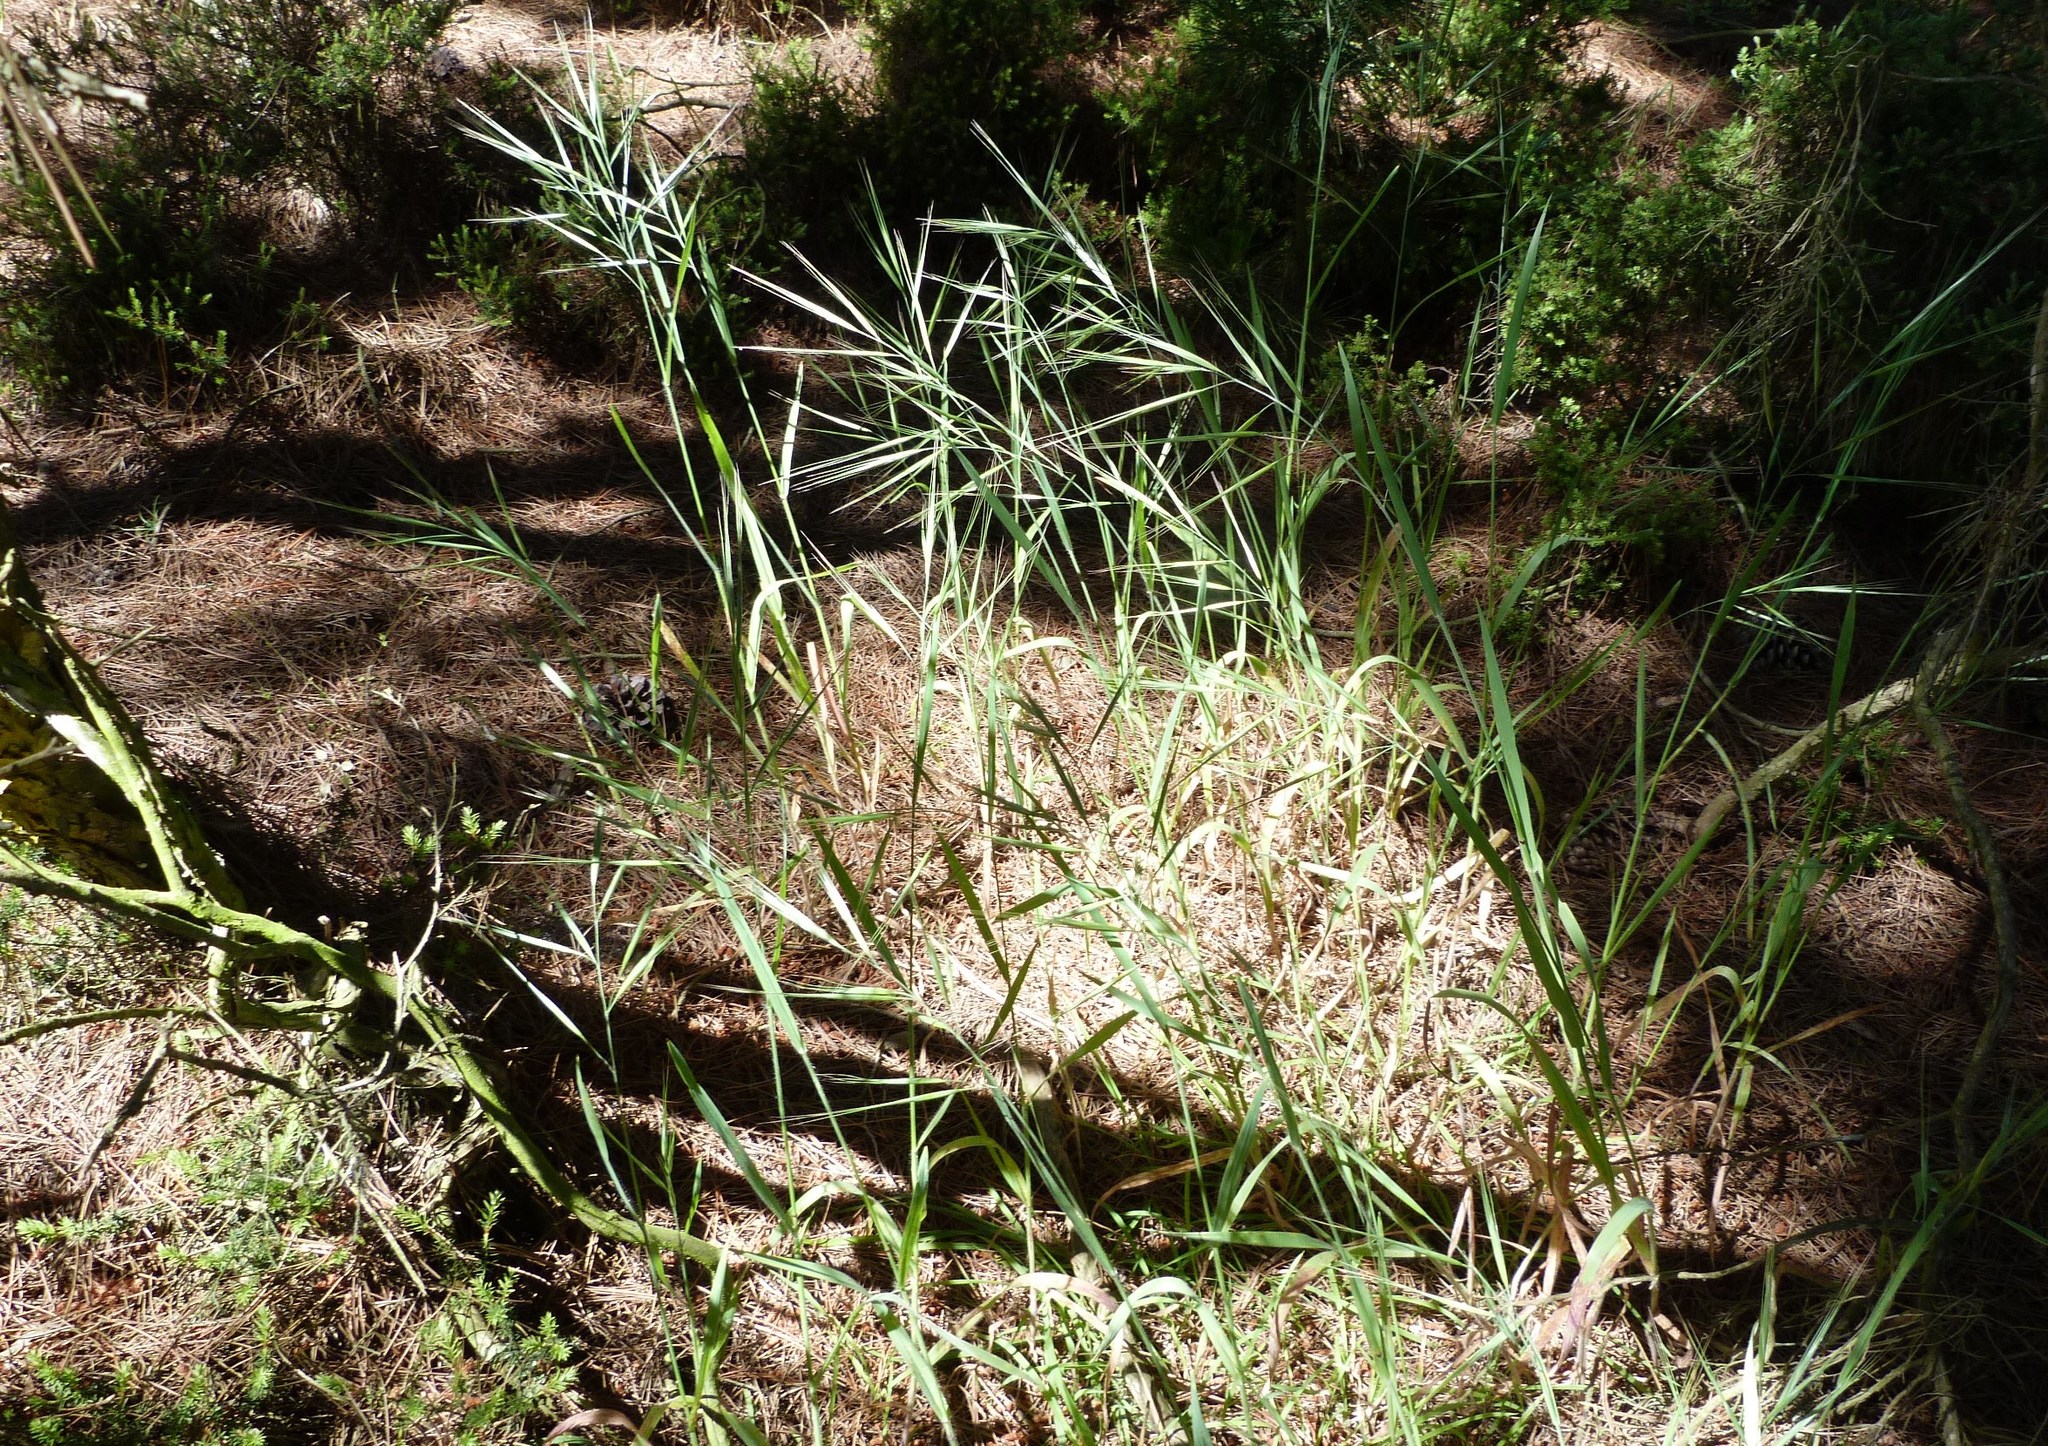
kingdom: Plantae
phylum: Tracheophyta
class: Liliopsida
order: Poales
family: Poaceae
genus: Bromus
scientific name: Bromus diandrus
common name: Ripgut brome
